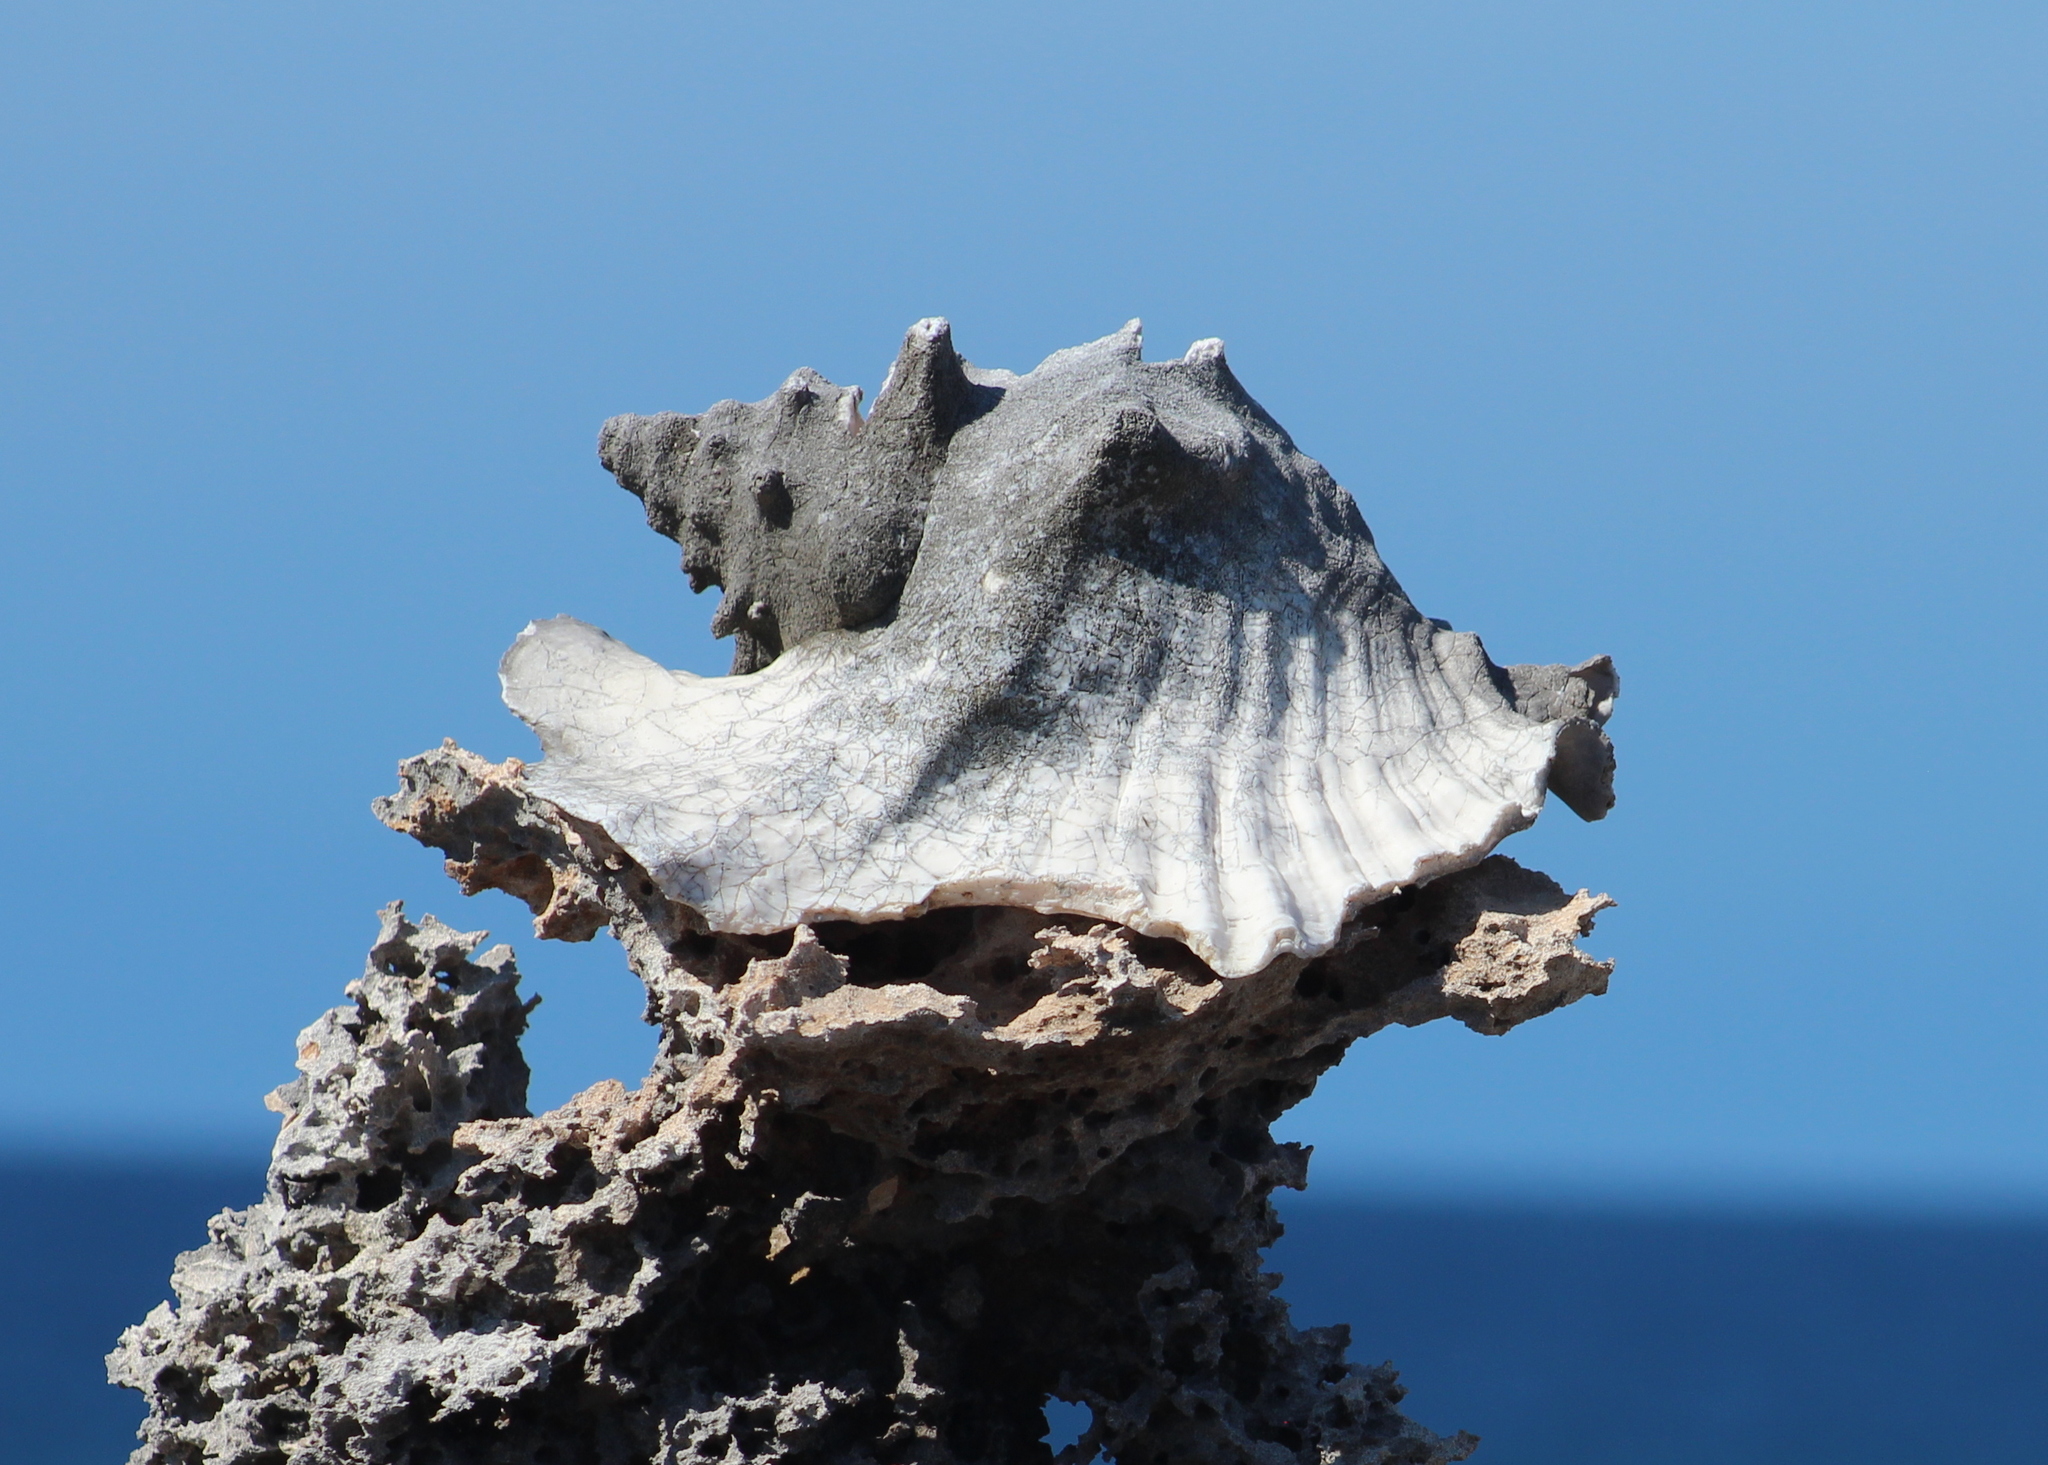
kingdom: Animalia
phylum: Mollusca
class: Gastropoda
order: Littorinimorpha
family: Strombidae
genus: Aliger
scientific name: Aliger gigas
